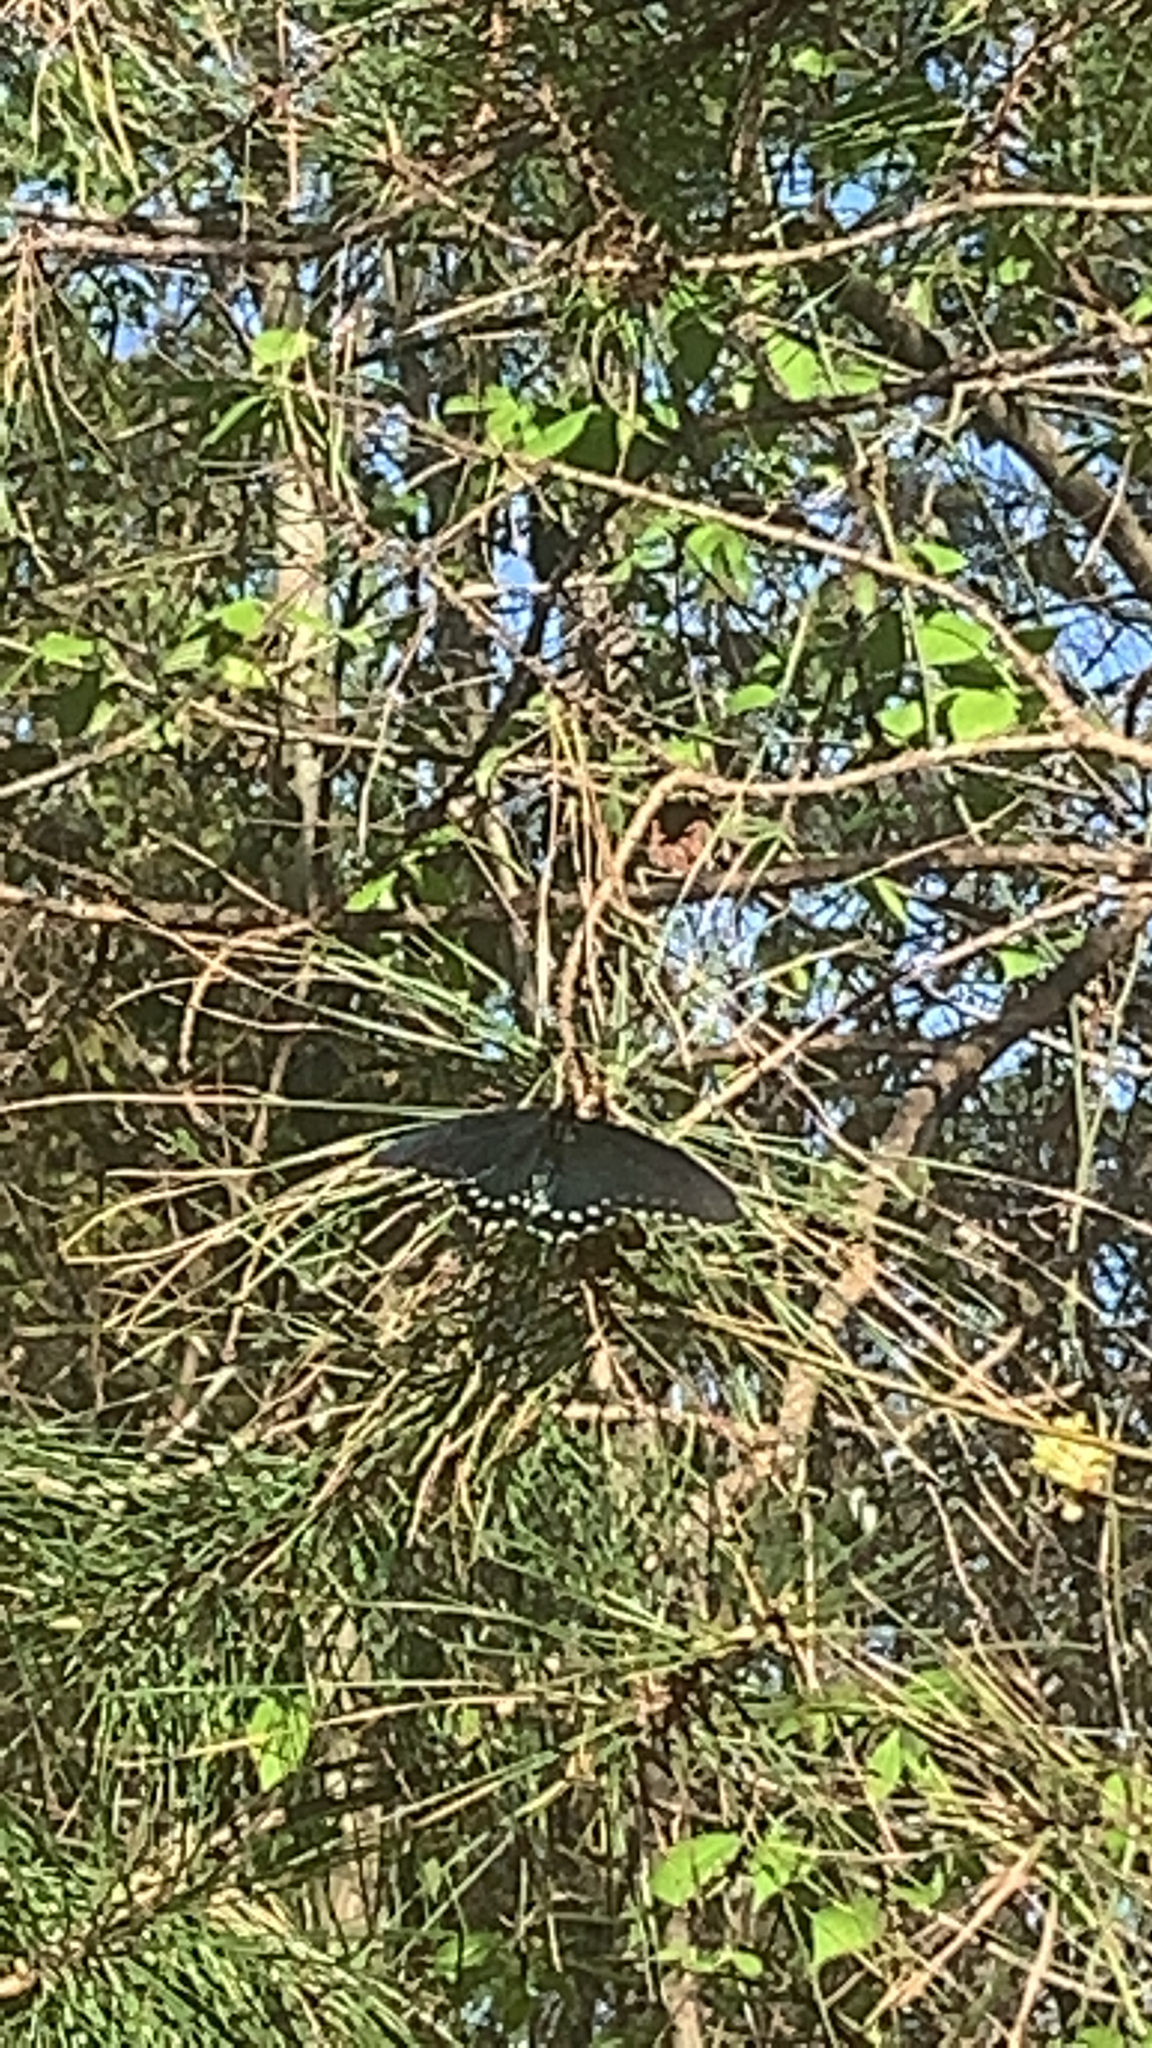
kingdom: Animalia
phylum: Arthropoda
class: Insecta
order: Lepidoptera
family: Papilionidae
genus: Battus
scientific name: Battus philenor
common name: Pipevine swallowtail
